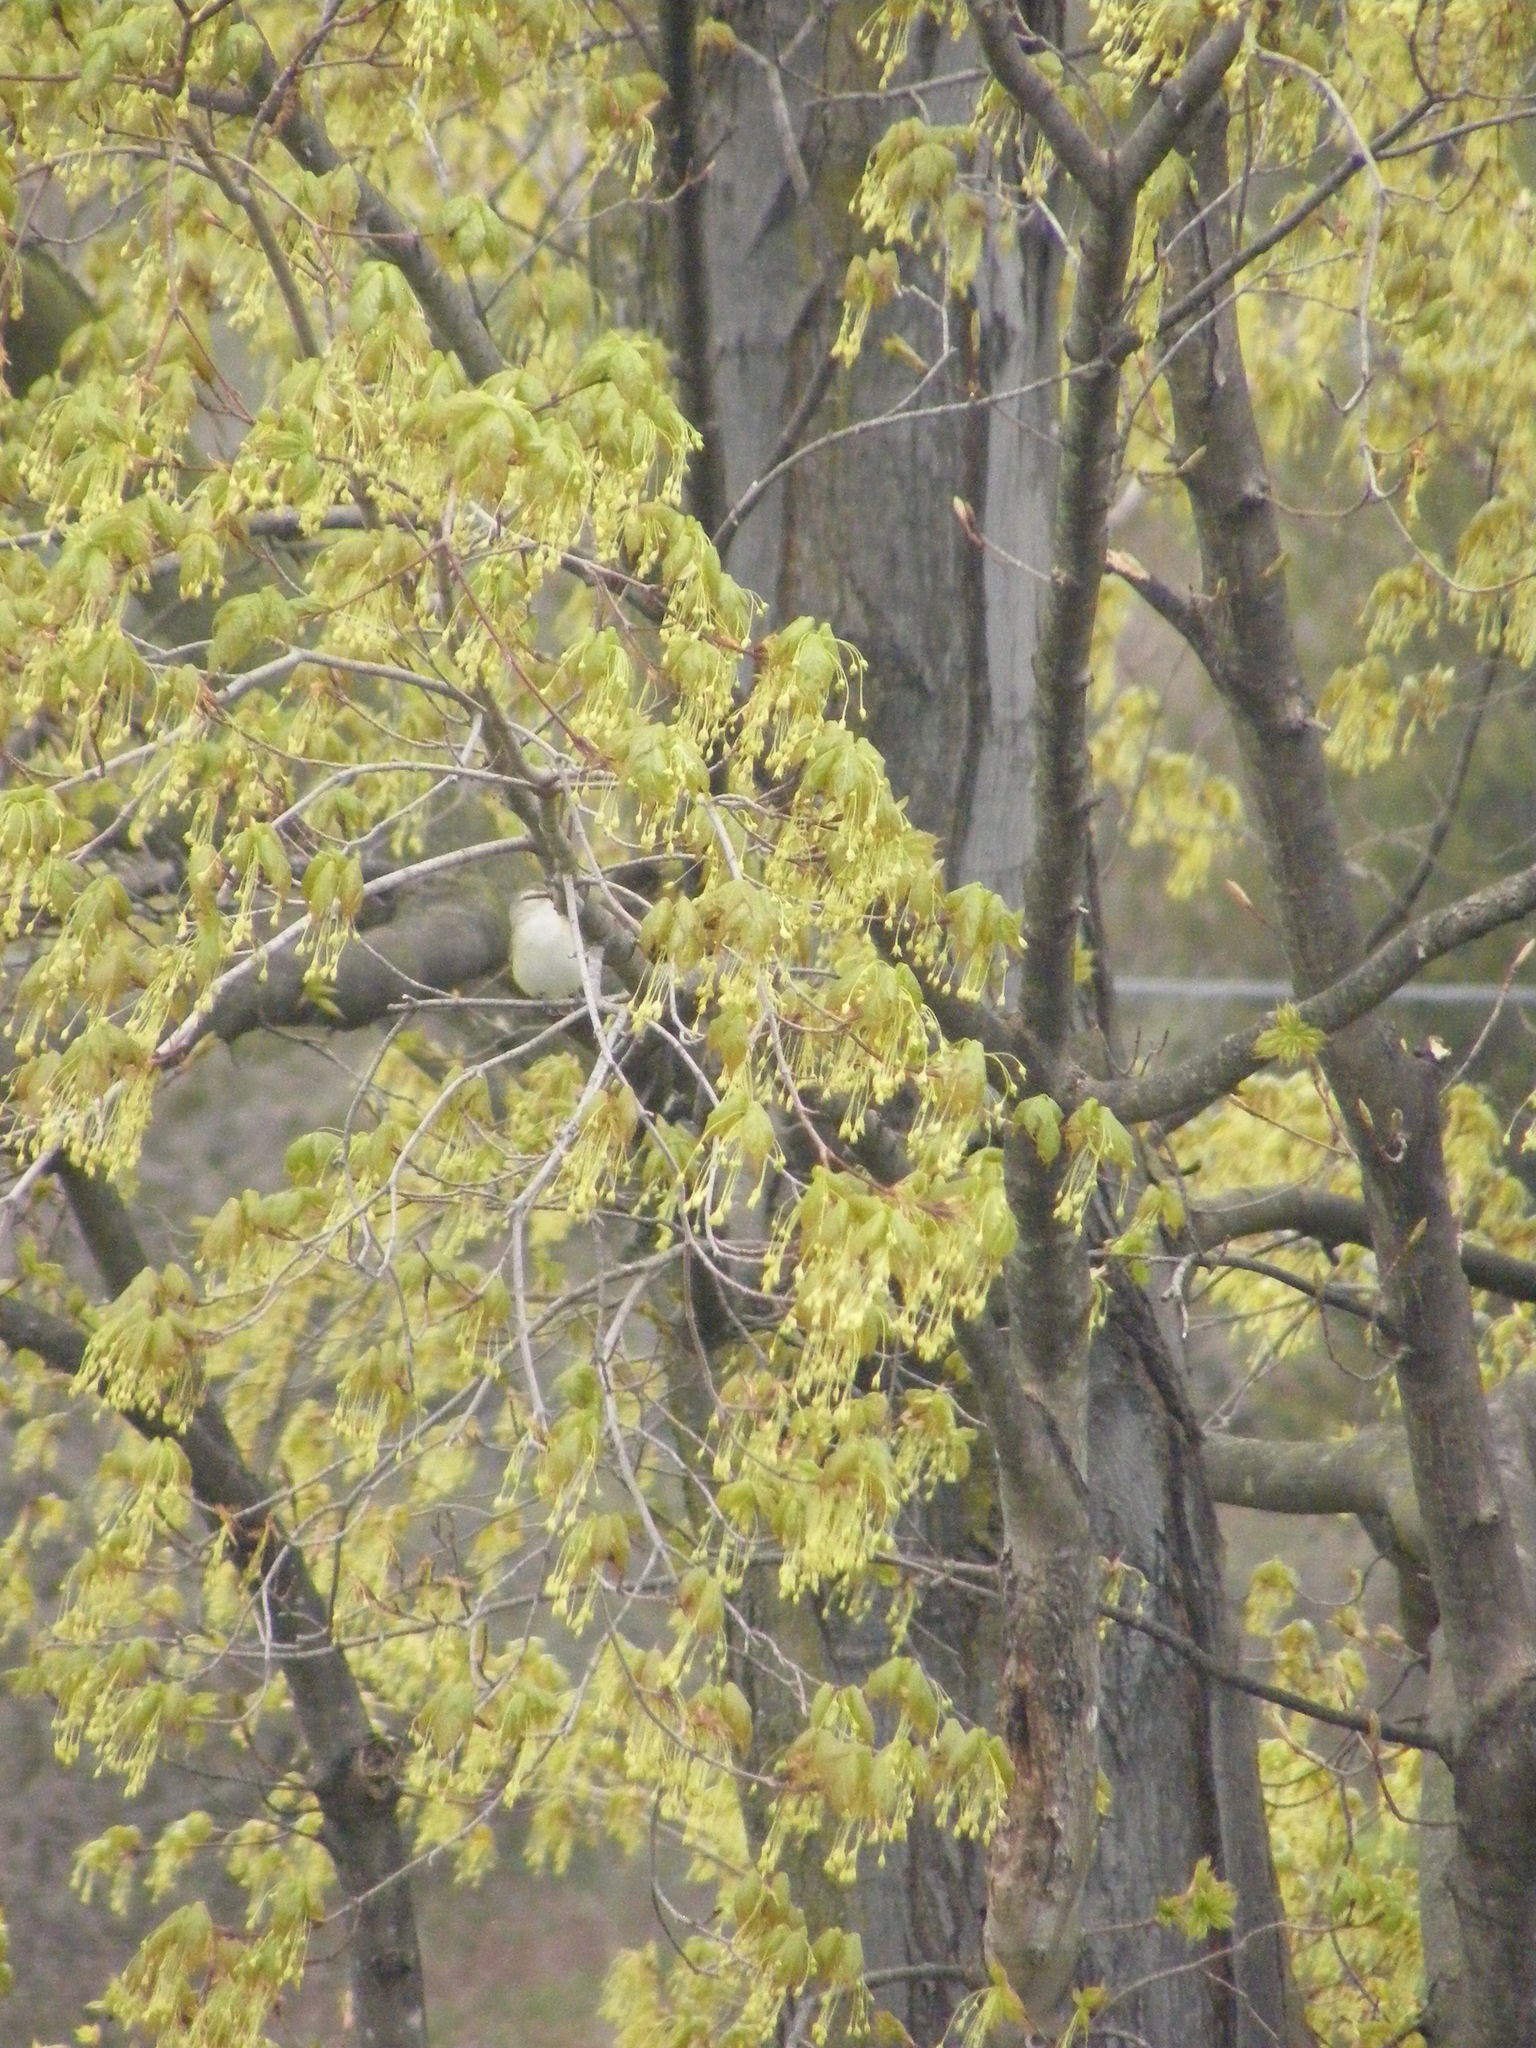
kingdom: Animalia
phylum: Chordata
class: Aves
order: Passeriformes
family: Vireonidae
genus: Vireo
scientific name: Vireo olivaceus
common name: Red-eyed vireo
